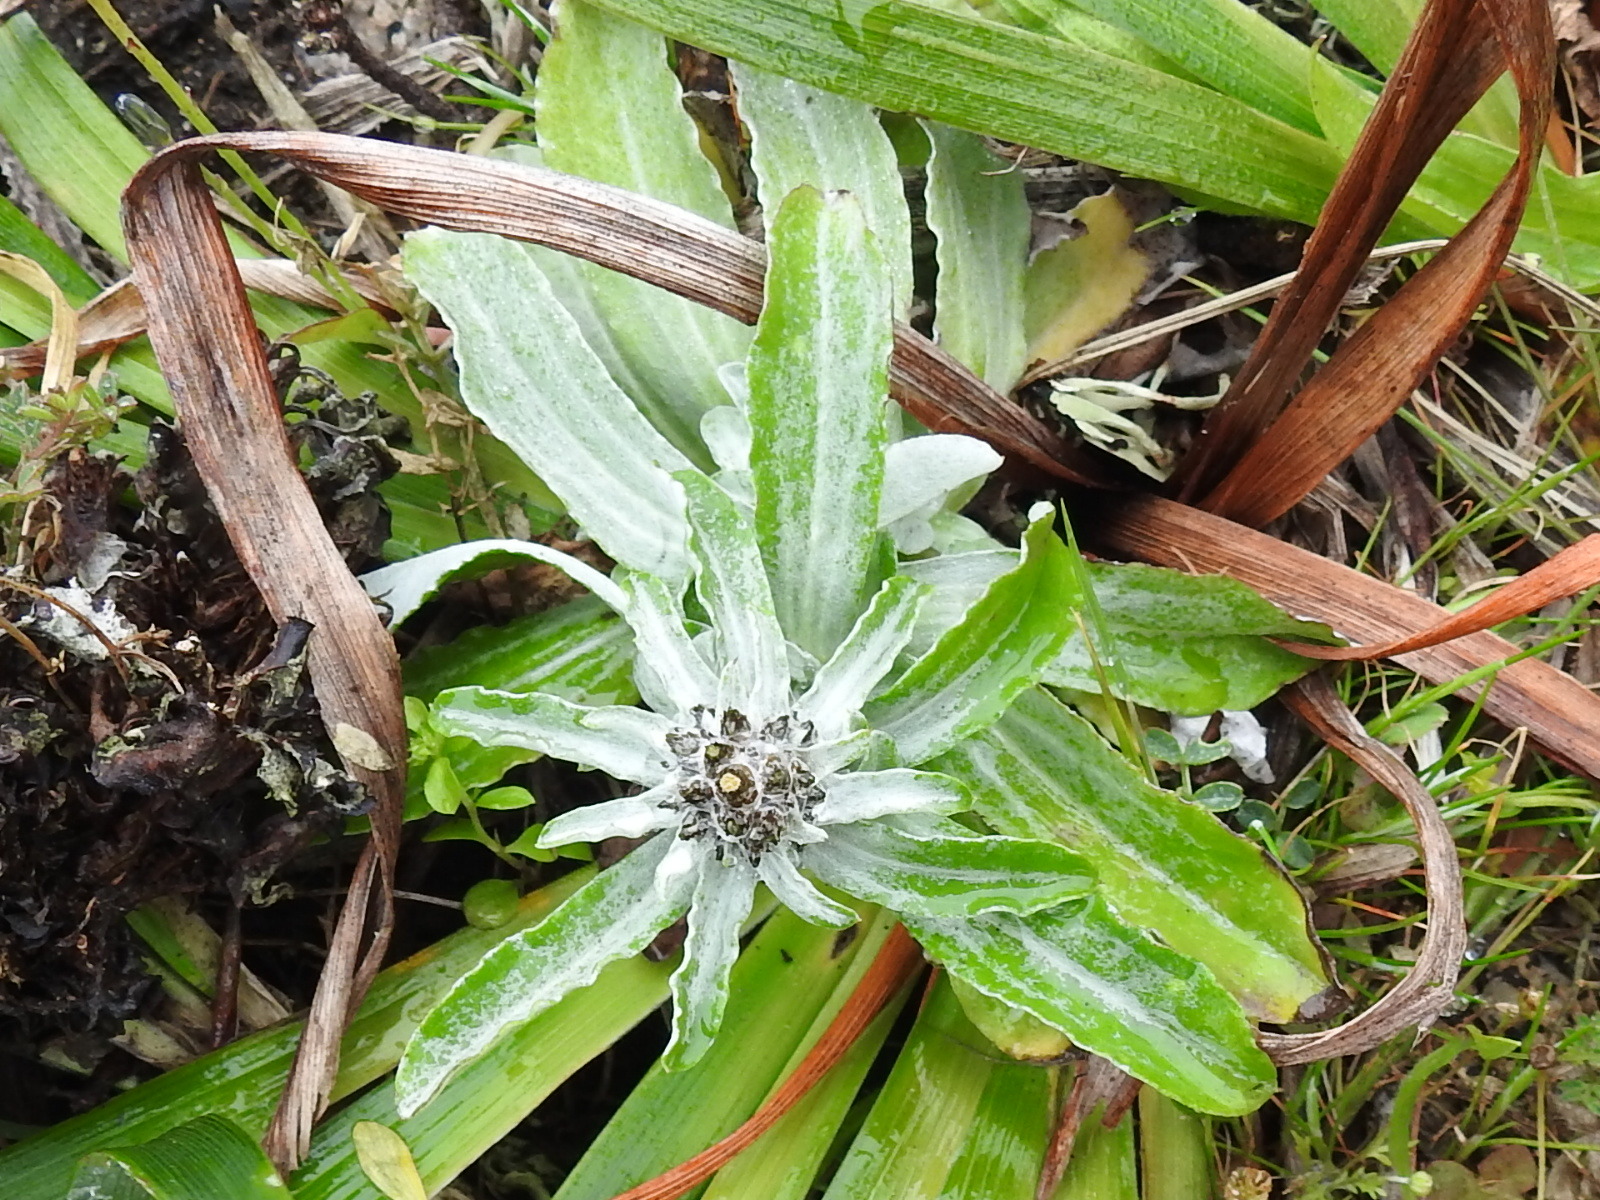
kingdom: Plantae
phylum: Tracheophyta
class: Magnoliopsida
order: Asterales
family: Asteraceae
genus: Gamochaeta
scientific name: Gamochaeta ustulata
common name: Pacific cudweed
